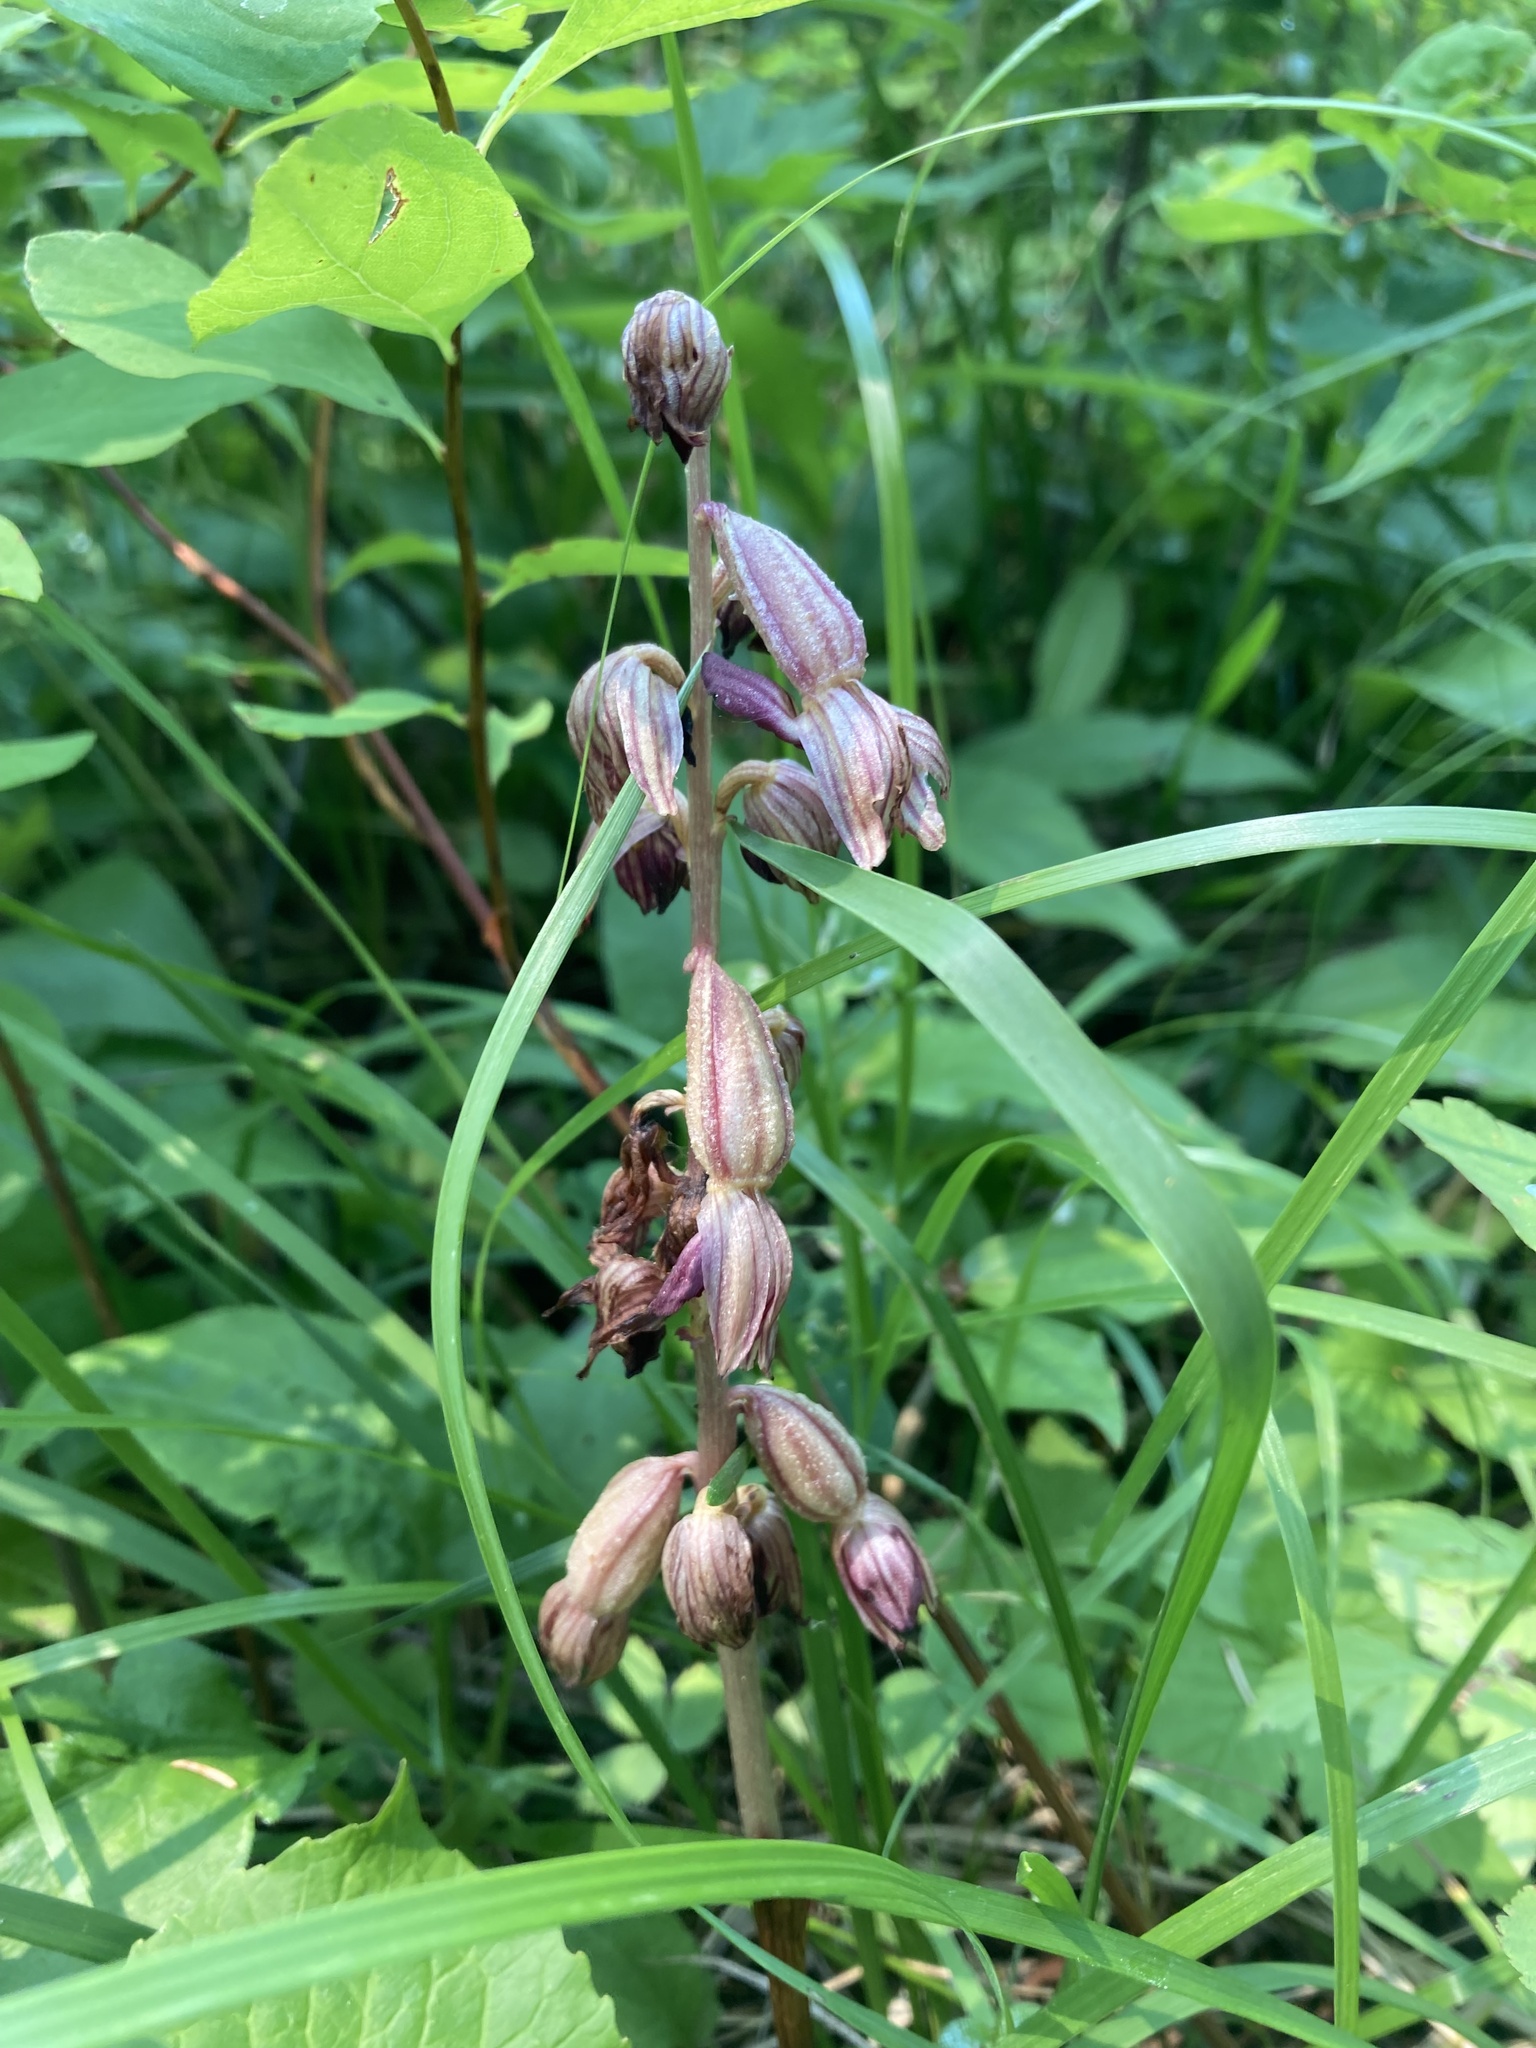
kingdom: Plantae
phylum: Tracheophyta
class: Liliopsida
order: Asparagales
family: Orchidaceae
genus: Corallorhiza
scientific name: Corallorhiza striata
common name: Hooded coralroot
